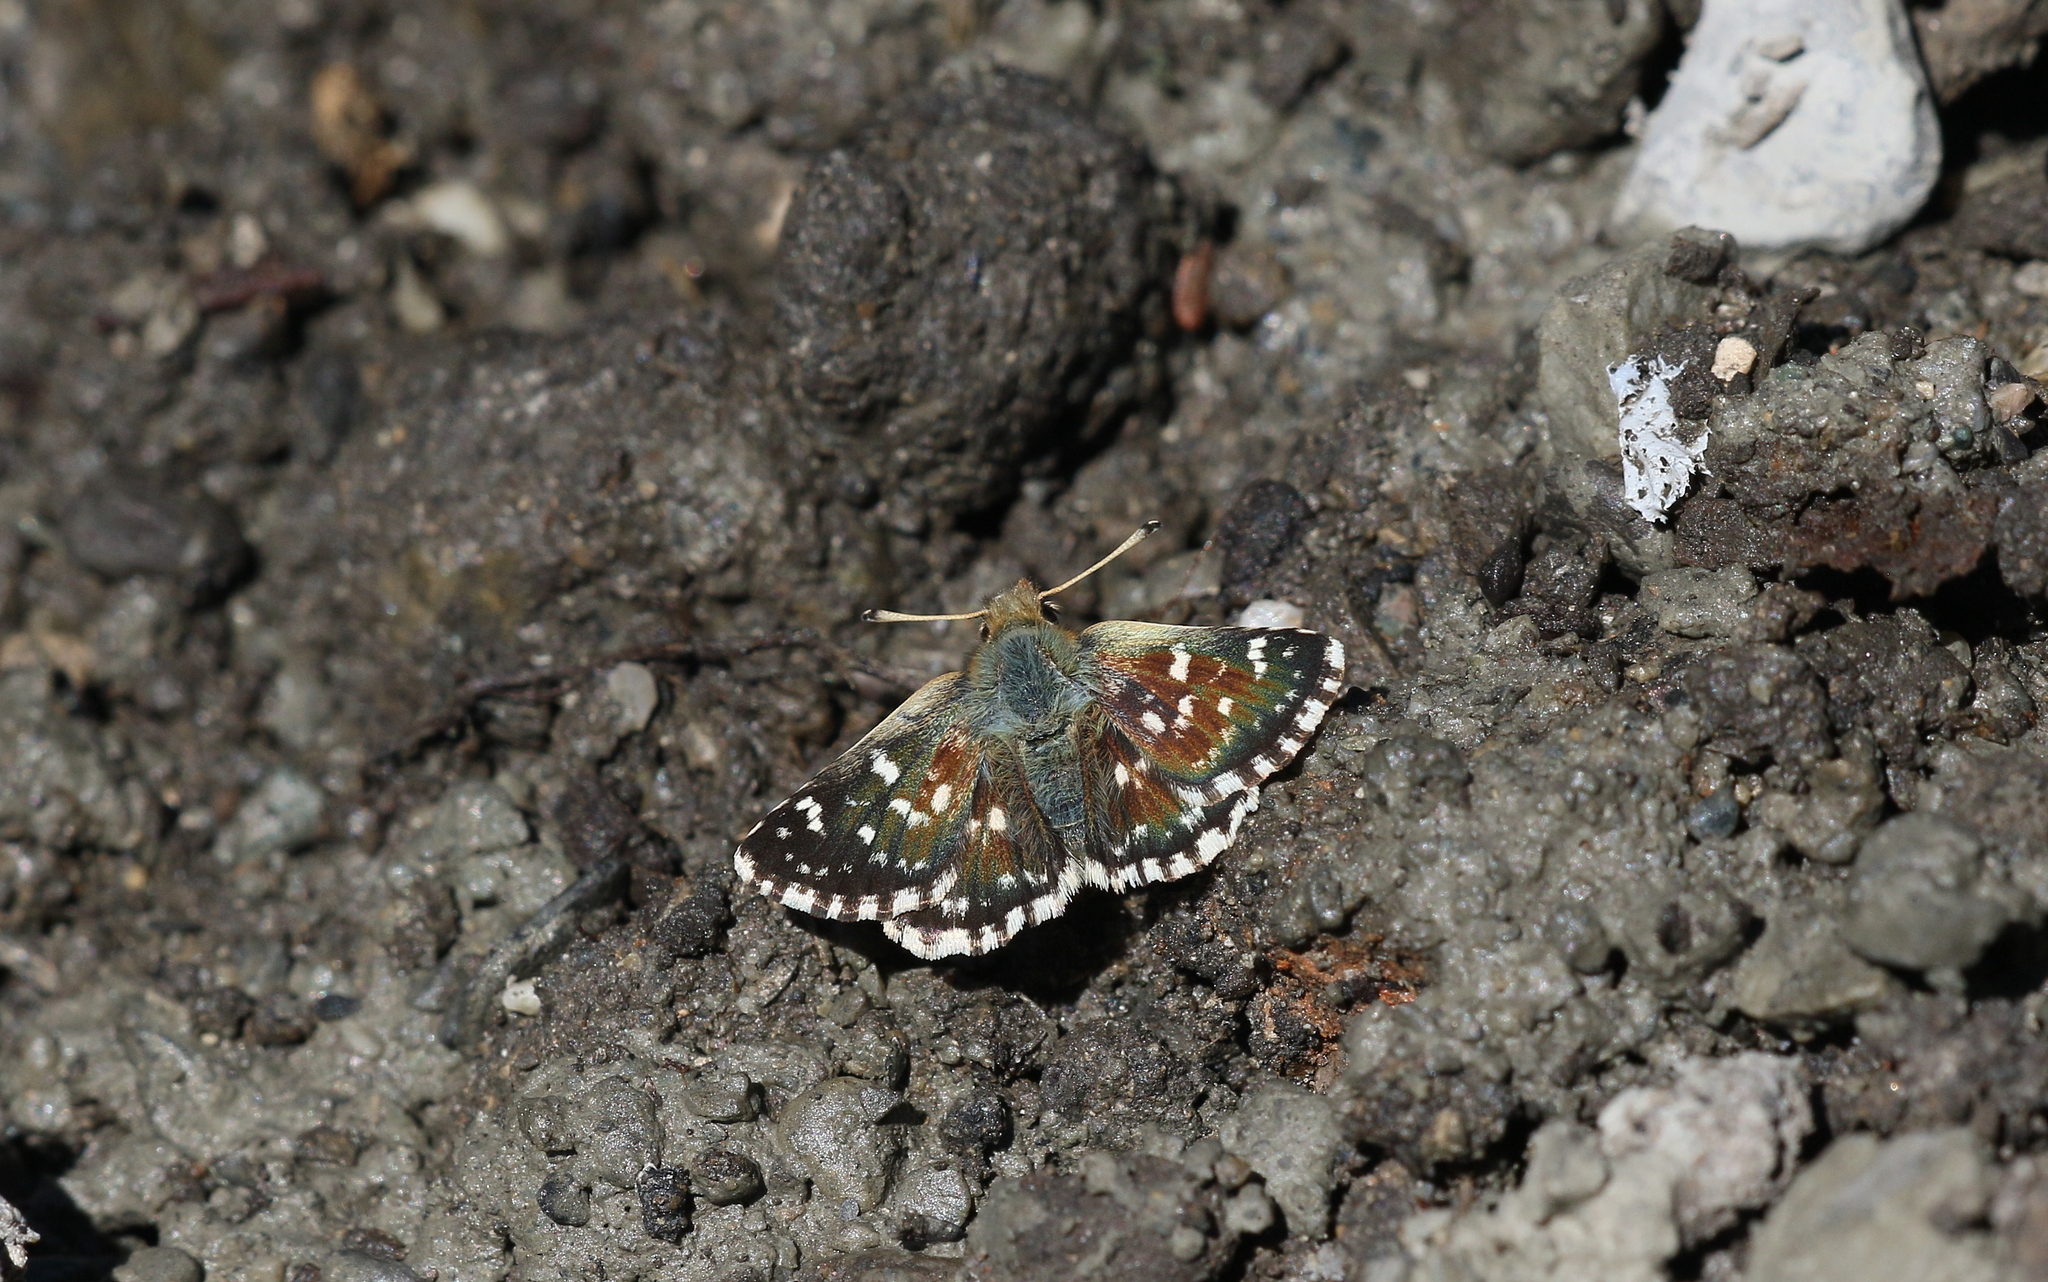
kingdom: Animalia
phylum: Arthropoda
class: Insecta
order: Lepidoptera
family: Hesperiidae
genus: Spialia
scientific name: Spialia sertorius
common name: Red underwing skipper
